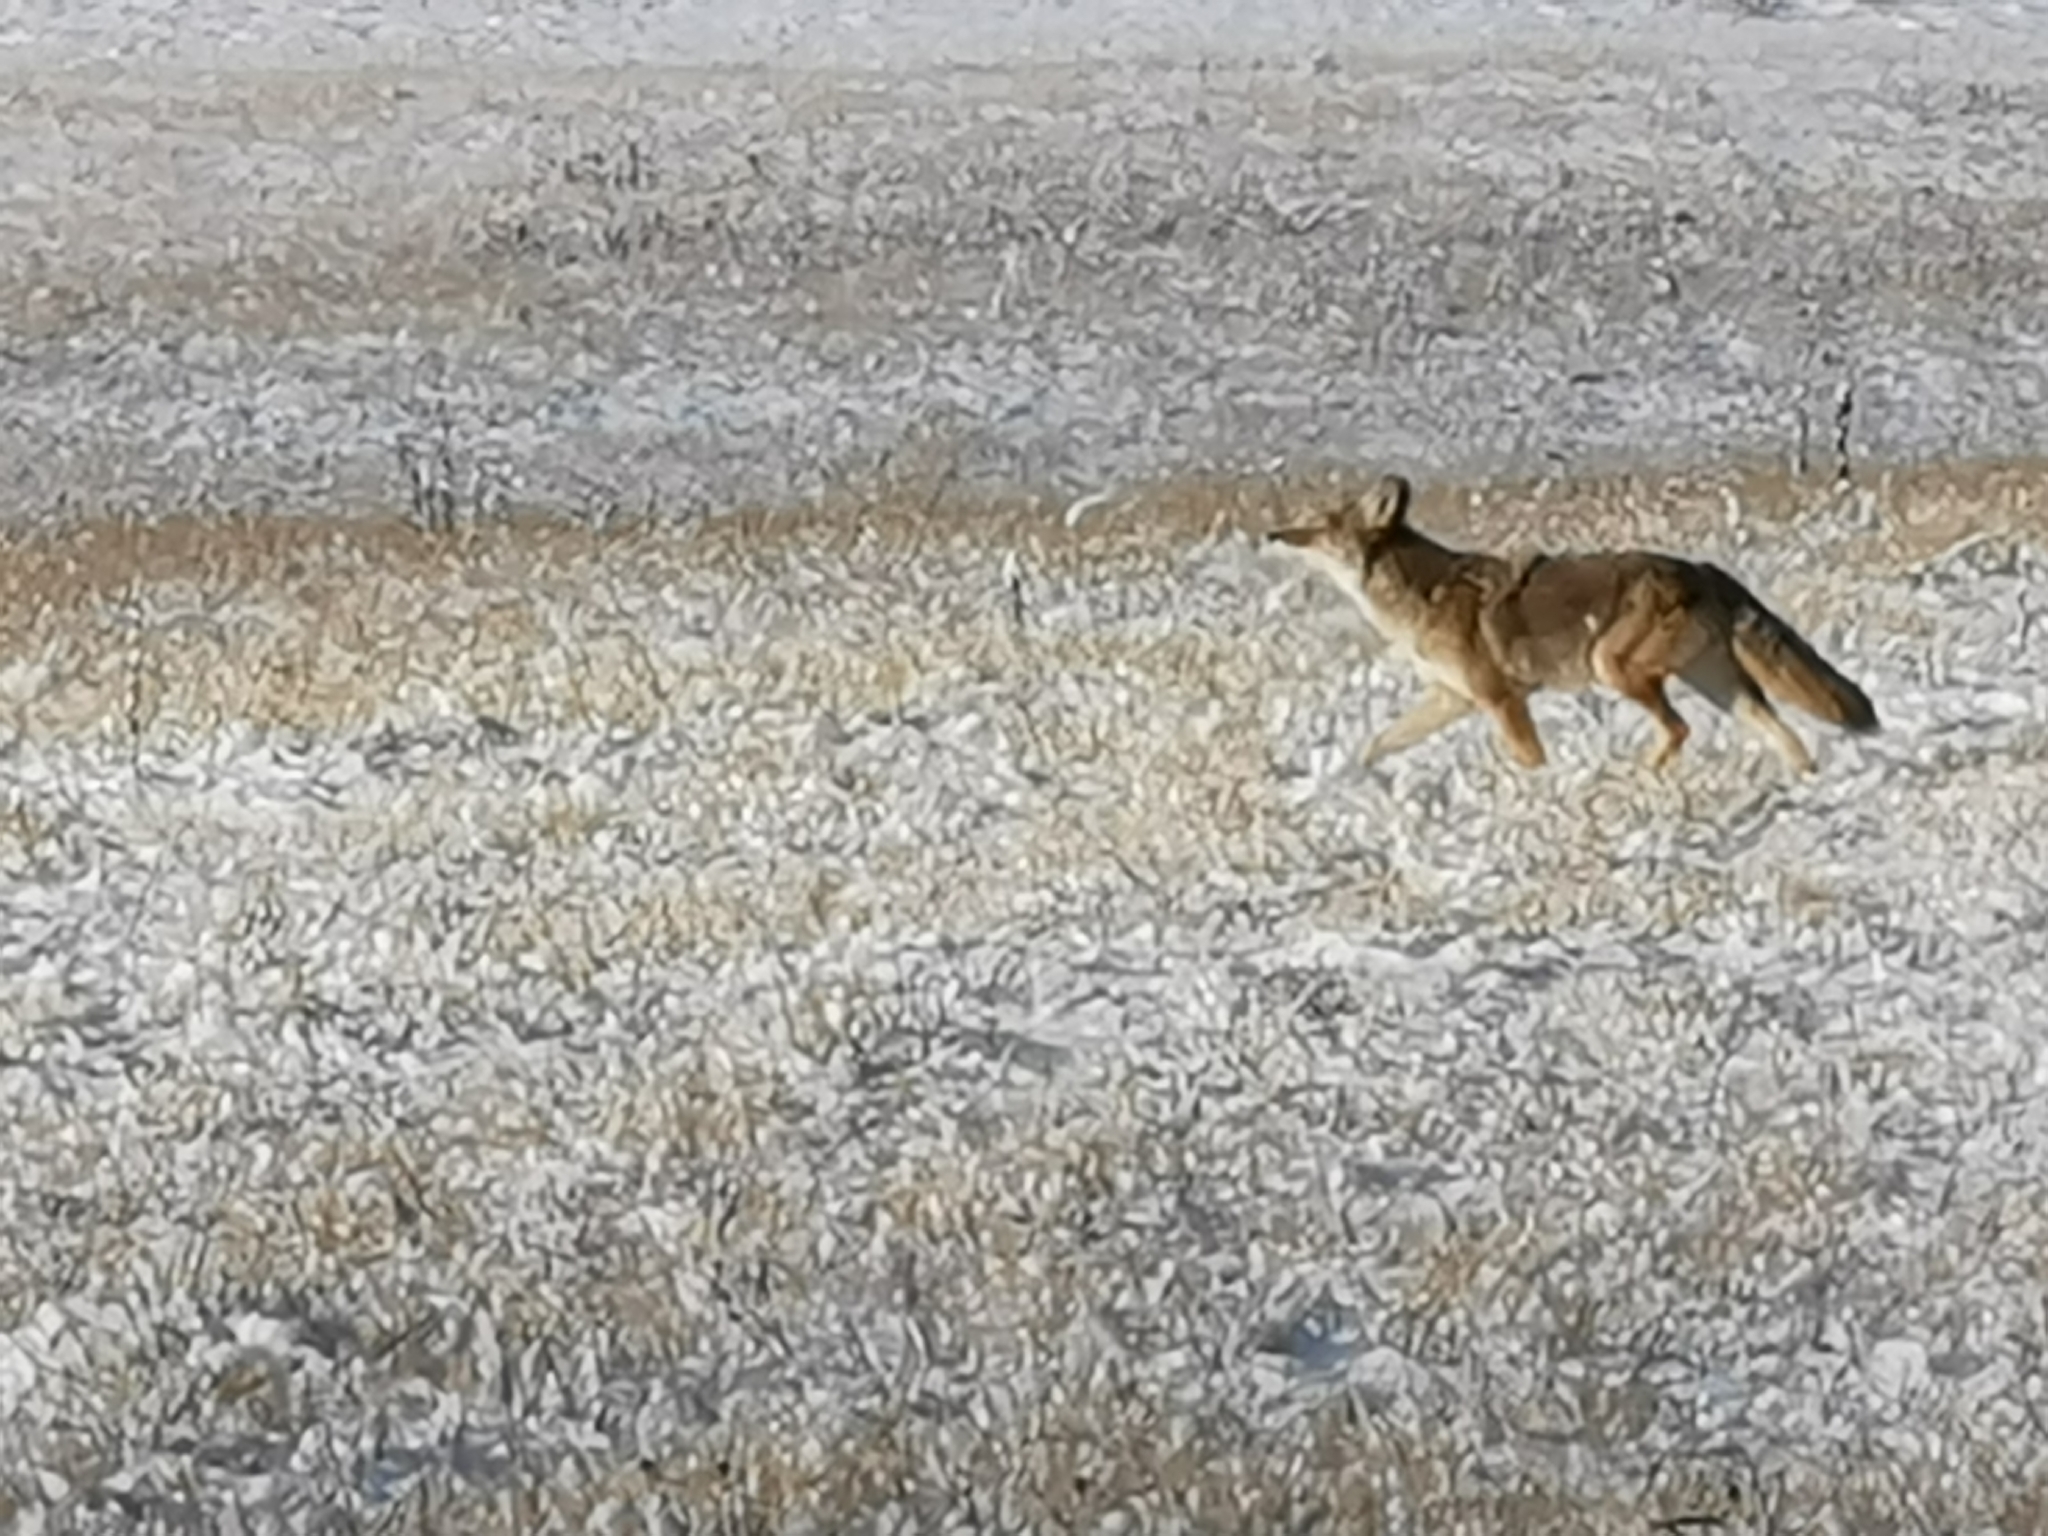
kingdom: Animalia
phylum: Chordata
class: Mammalia
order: Carnivora
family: Canidae
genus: Canis
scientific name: Canis latrans
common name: Coyote
